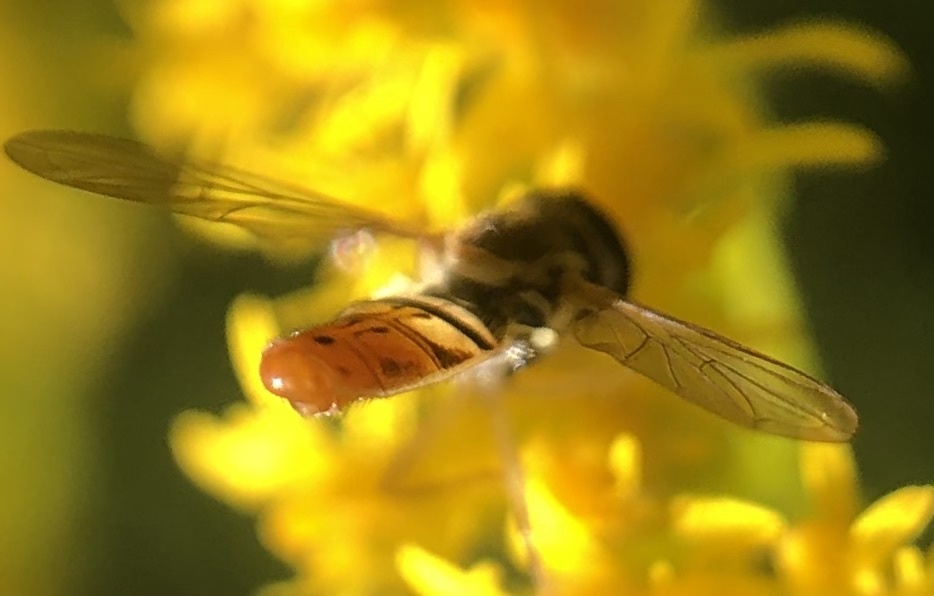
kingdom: Animalia
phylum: Arthropoda
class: Insecta
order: Diptera
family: Syrphidae
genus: Toxomerus
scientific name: Toxomerus marginatus
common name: Syrphid fly
